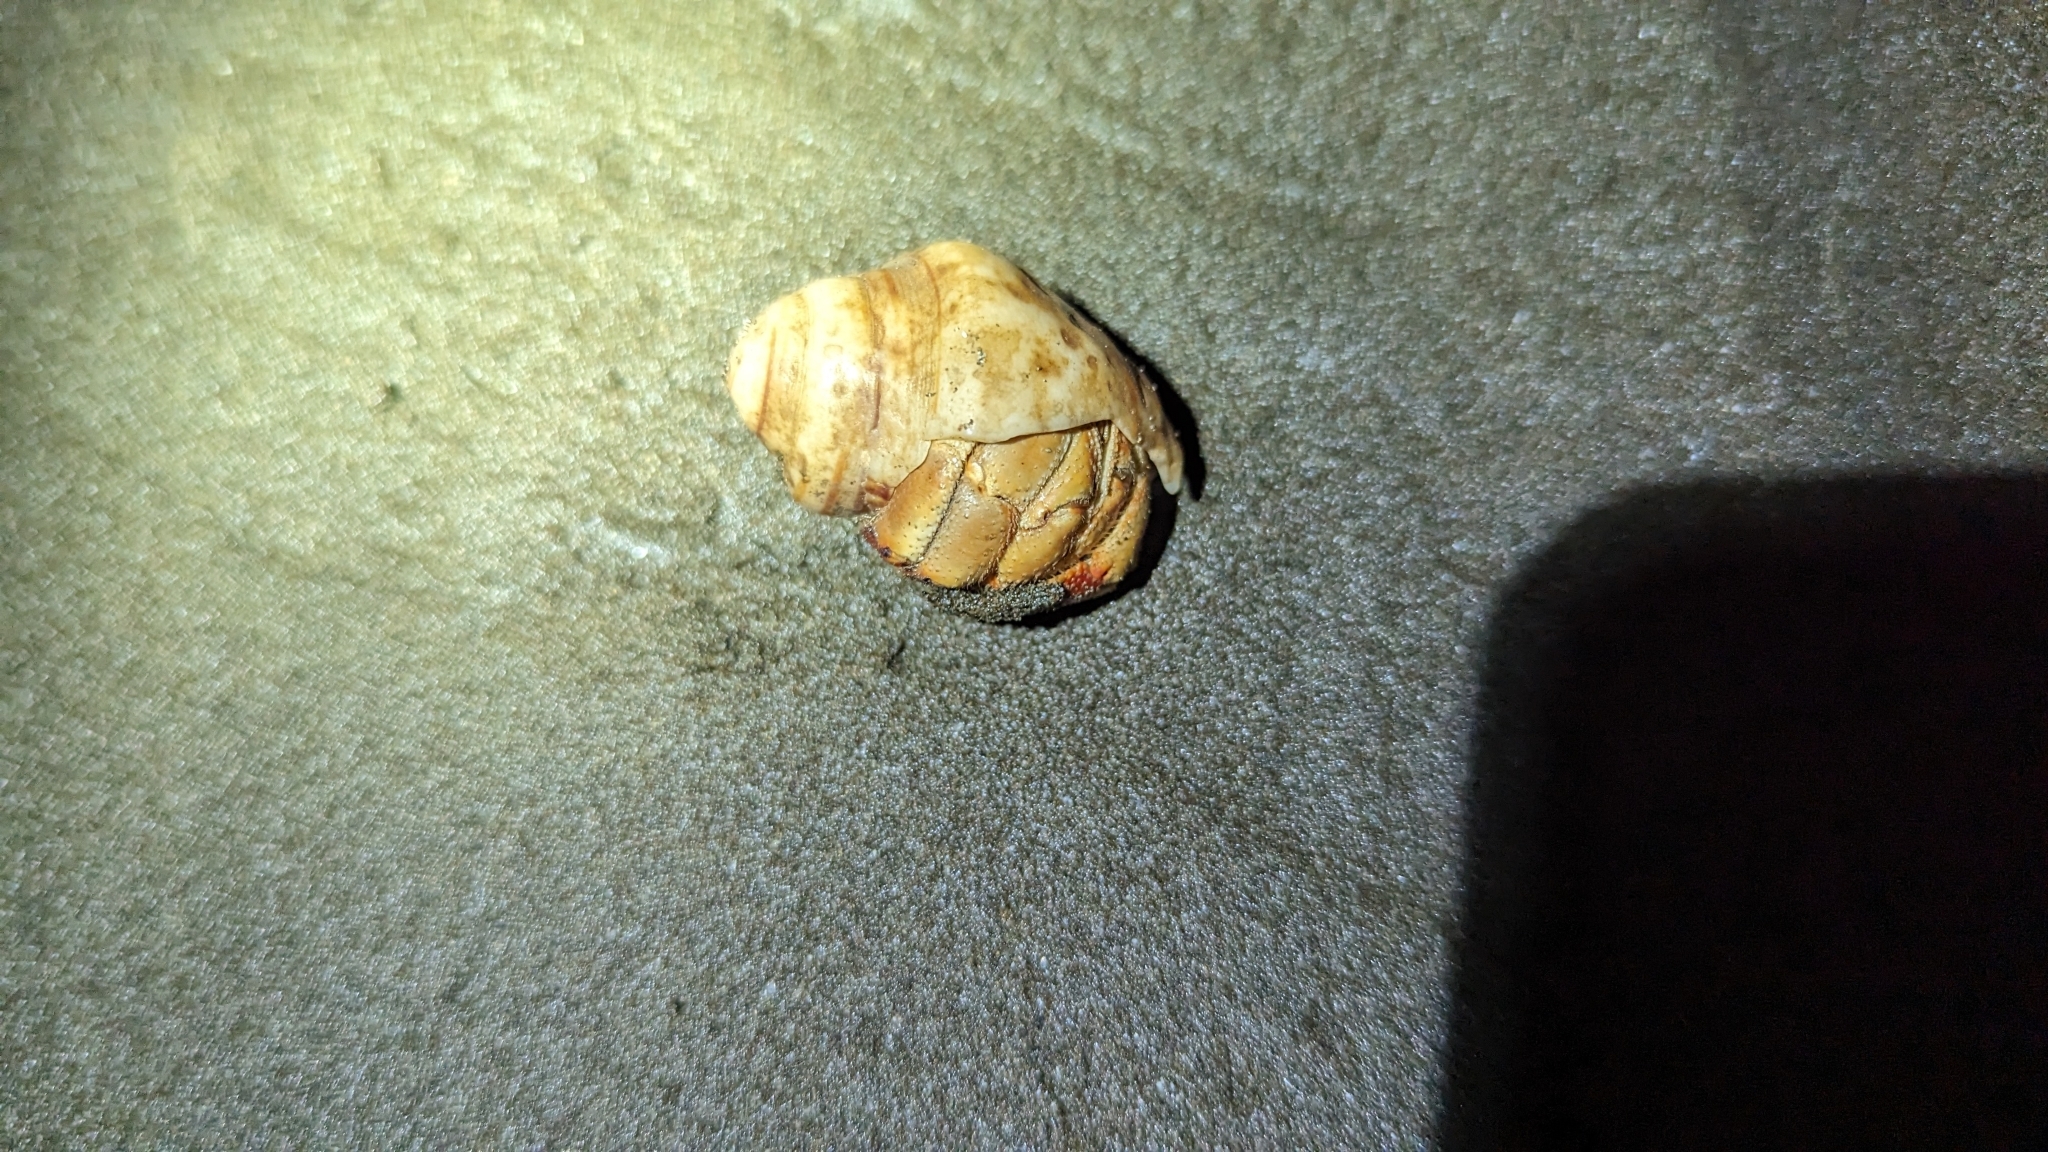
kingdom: Animalia
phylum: Arthropoda
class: Malacostraca
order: Decapoda
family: Coenobitidae
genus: Coenobita
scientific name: Coenobita compressus
